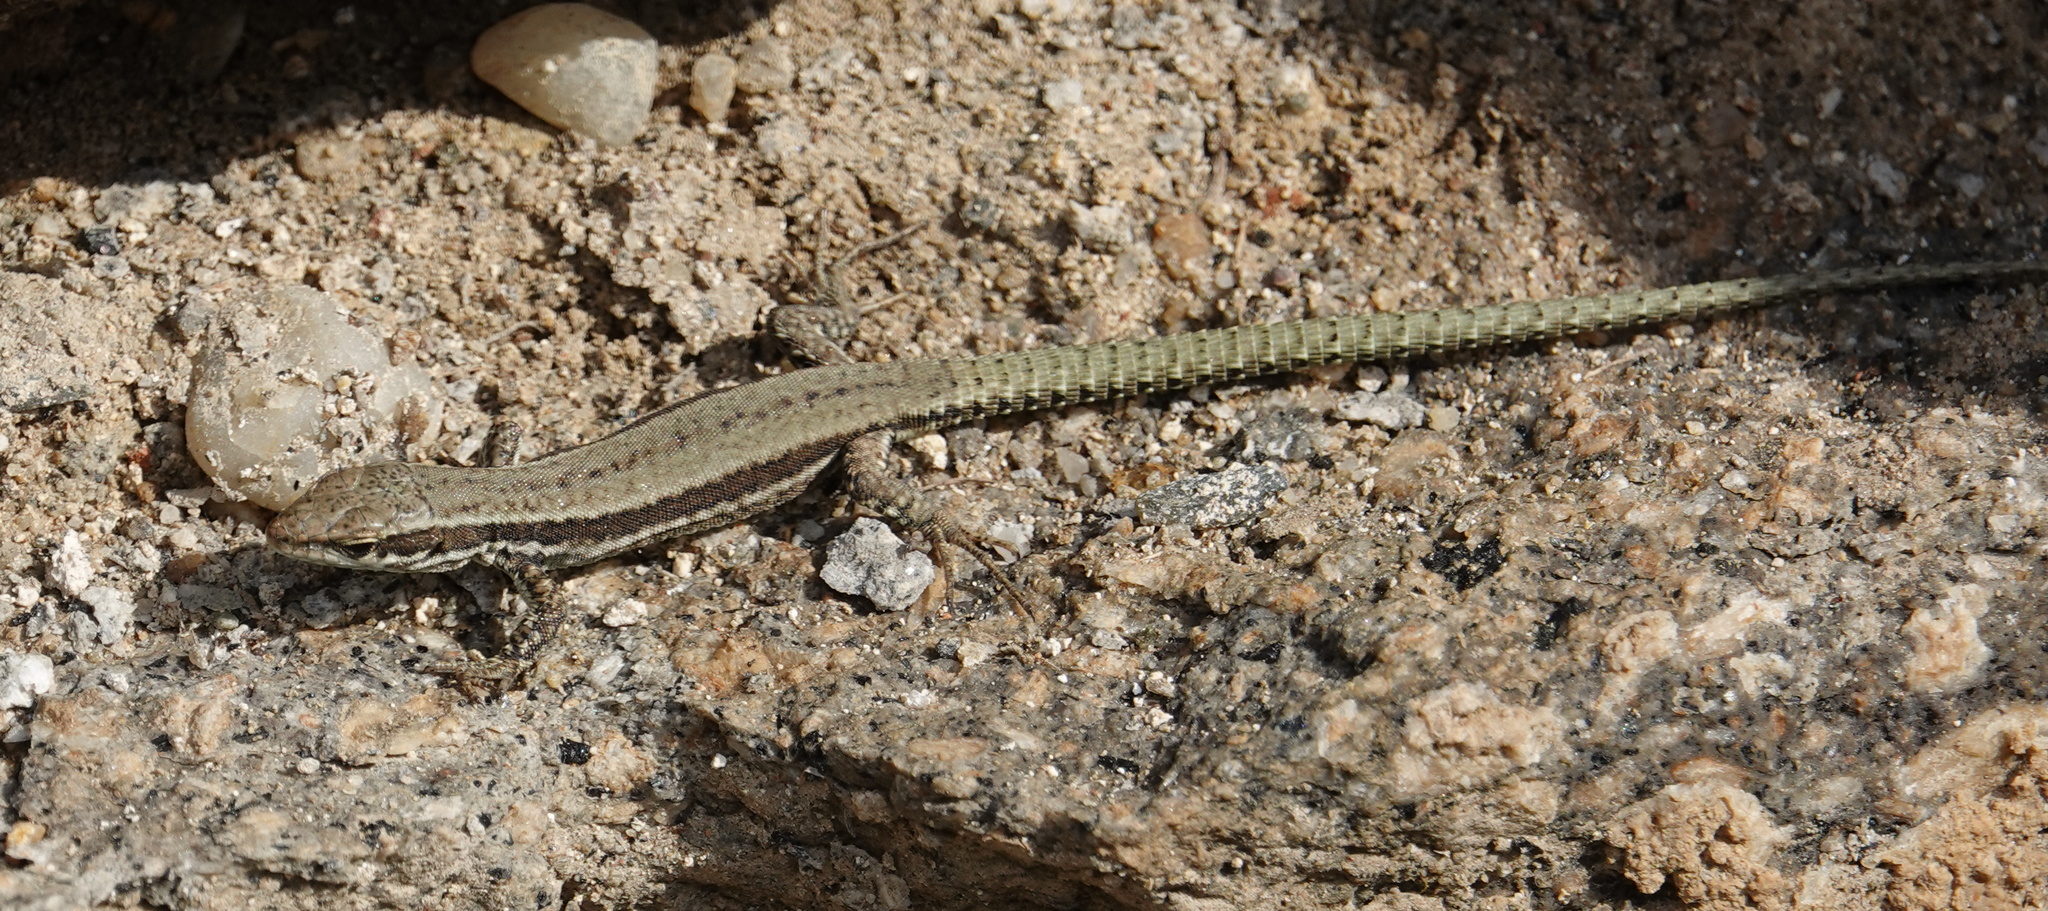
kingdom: Animalia
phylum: Chordata
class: Squamata
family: Lacertidae
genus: Podarcis
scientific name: Podarcis muralis
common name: Common wall lizard
